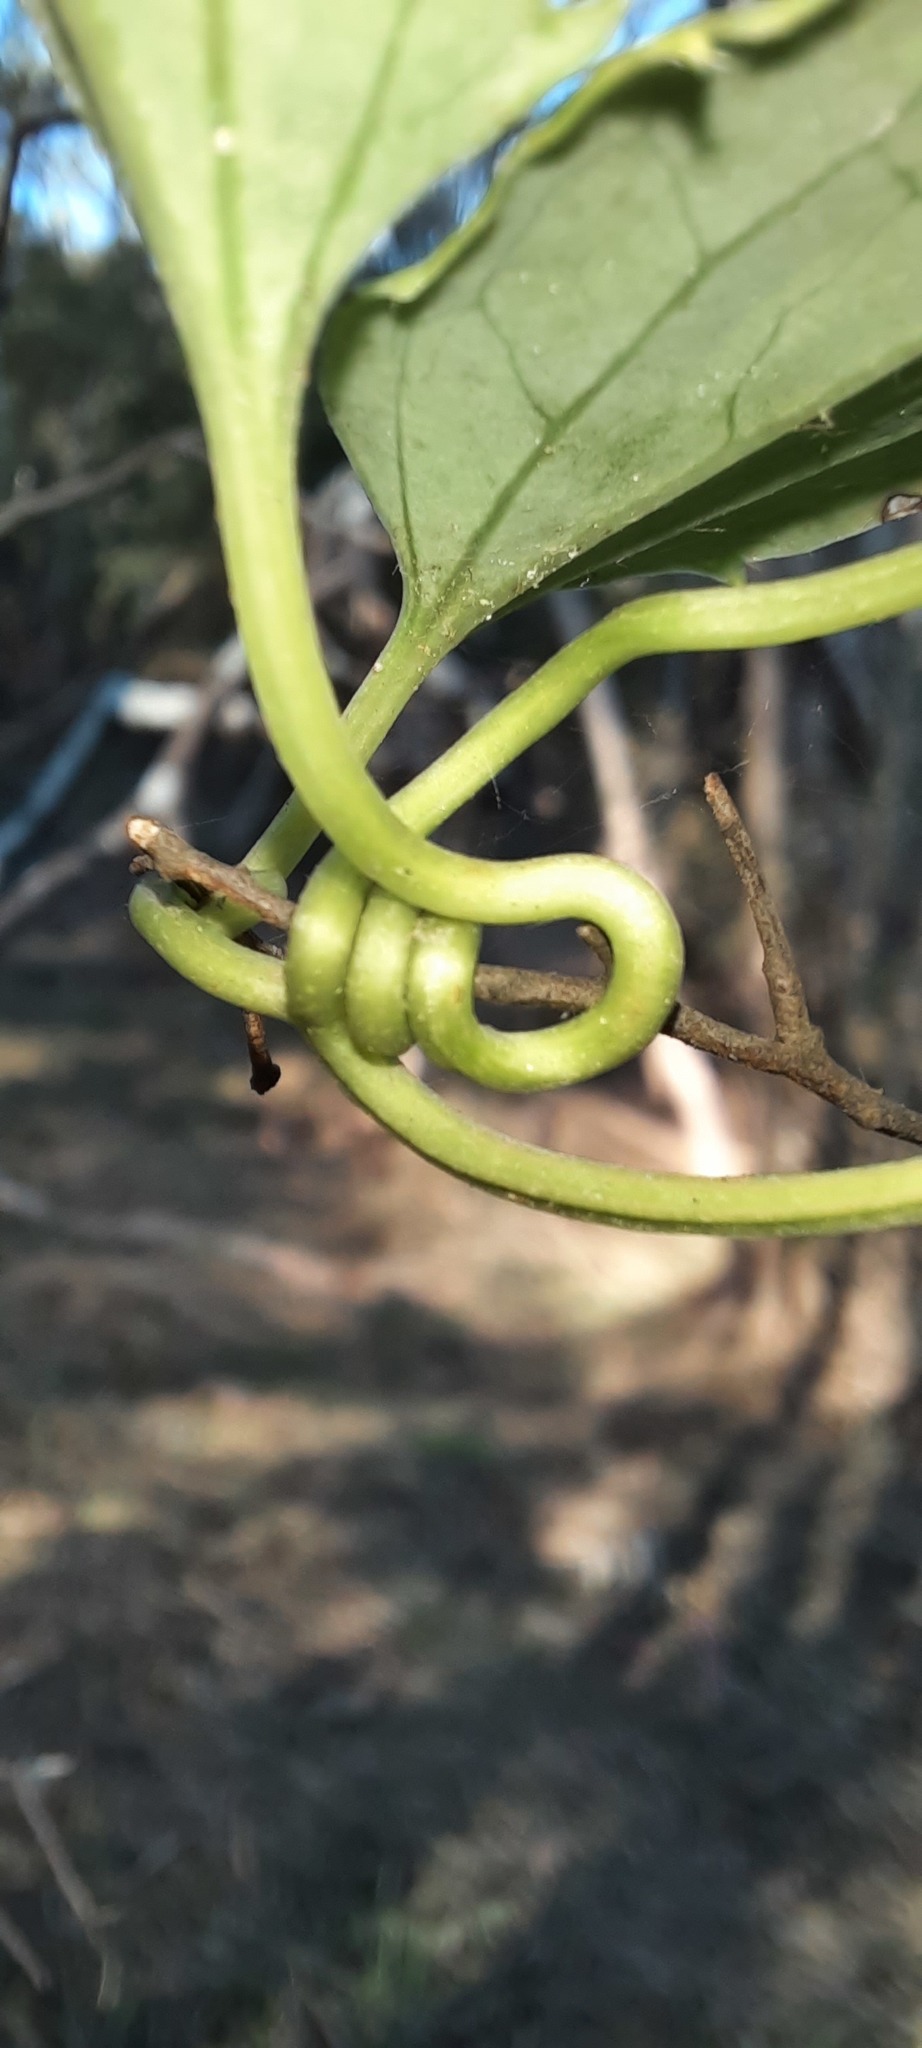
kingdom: Plantae
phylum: Tracheophyta
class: Magnoliopsida
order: Ranunculales
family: Ranunculaceae
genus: Clematis
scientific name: Clematis aristata
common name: Mountain clematis
